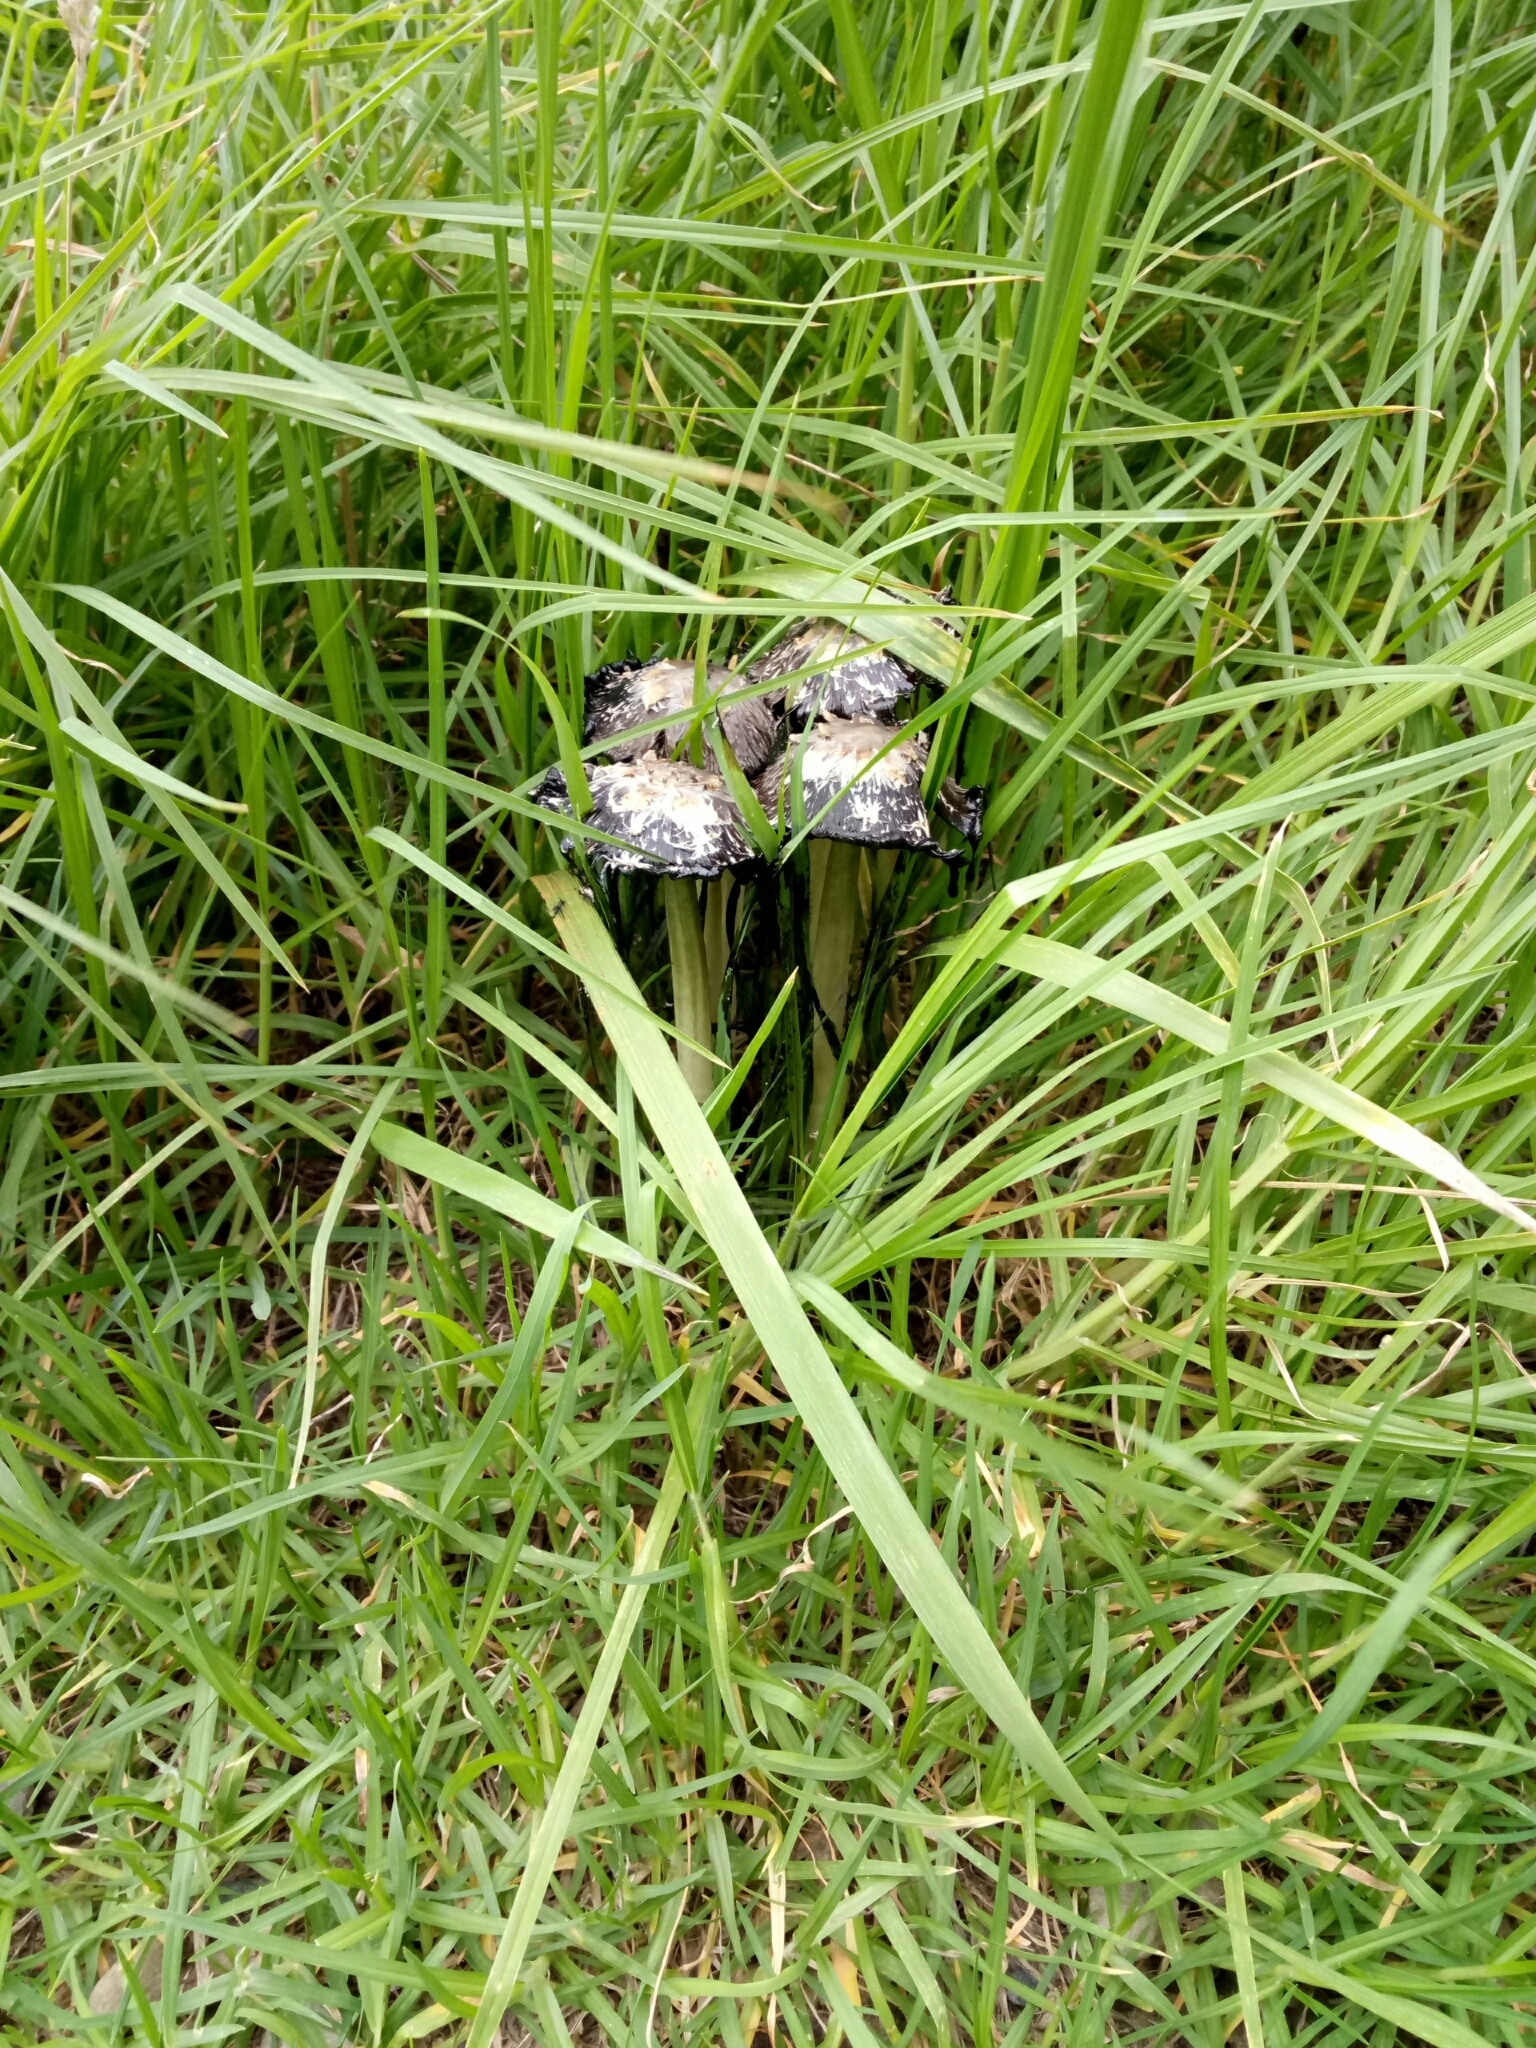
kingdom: Fungi
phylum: Basidiomycota
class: Agaricomycetes
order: Agaricales
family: Agaricaceae
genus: Coprinus
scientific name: Coprinus comatus
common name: Lawyer's wig
